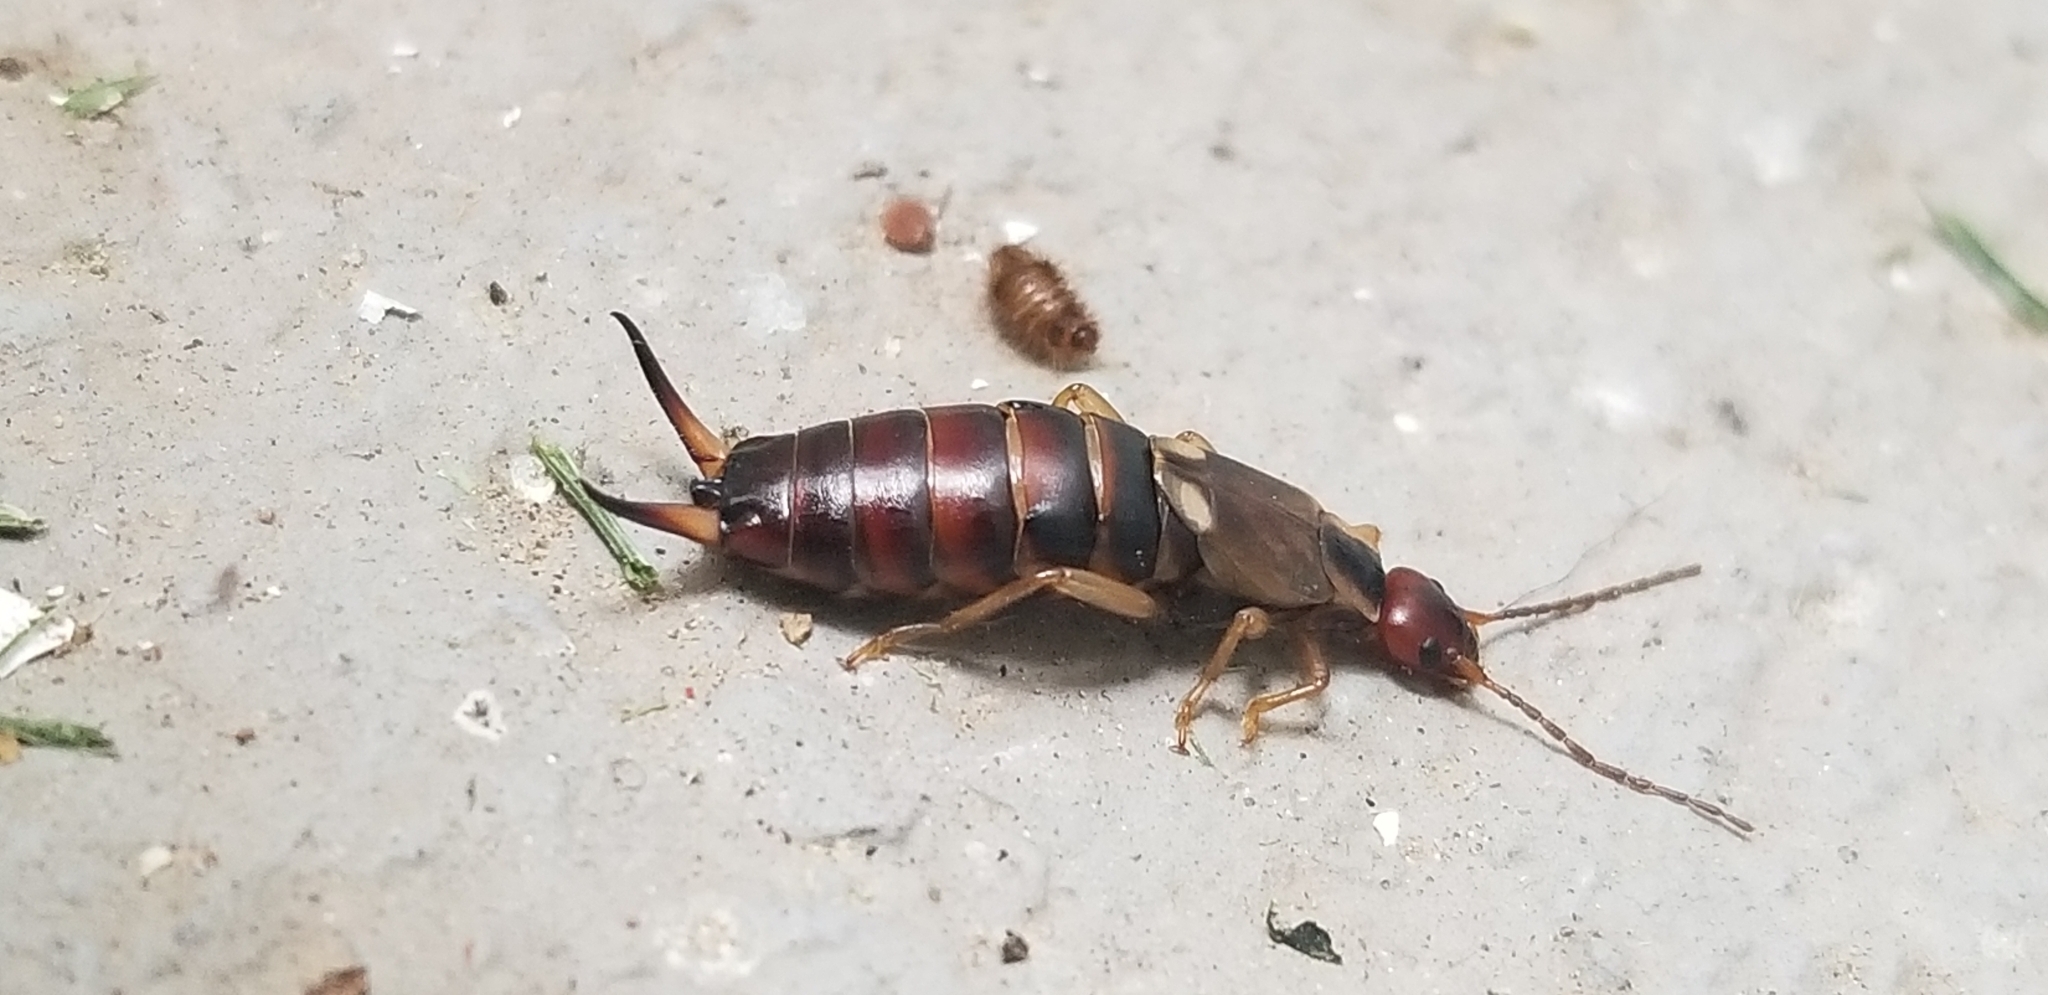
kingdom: Animalia
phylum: Arthropoda
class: Insecta
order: Dermaptera
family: Forficulidae
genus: Forficula
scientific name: Forficula
